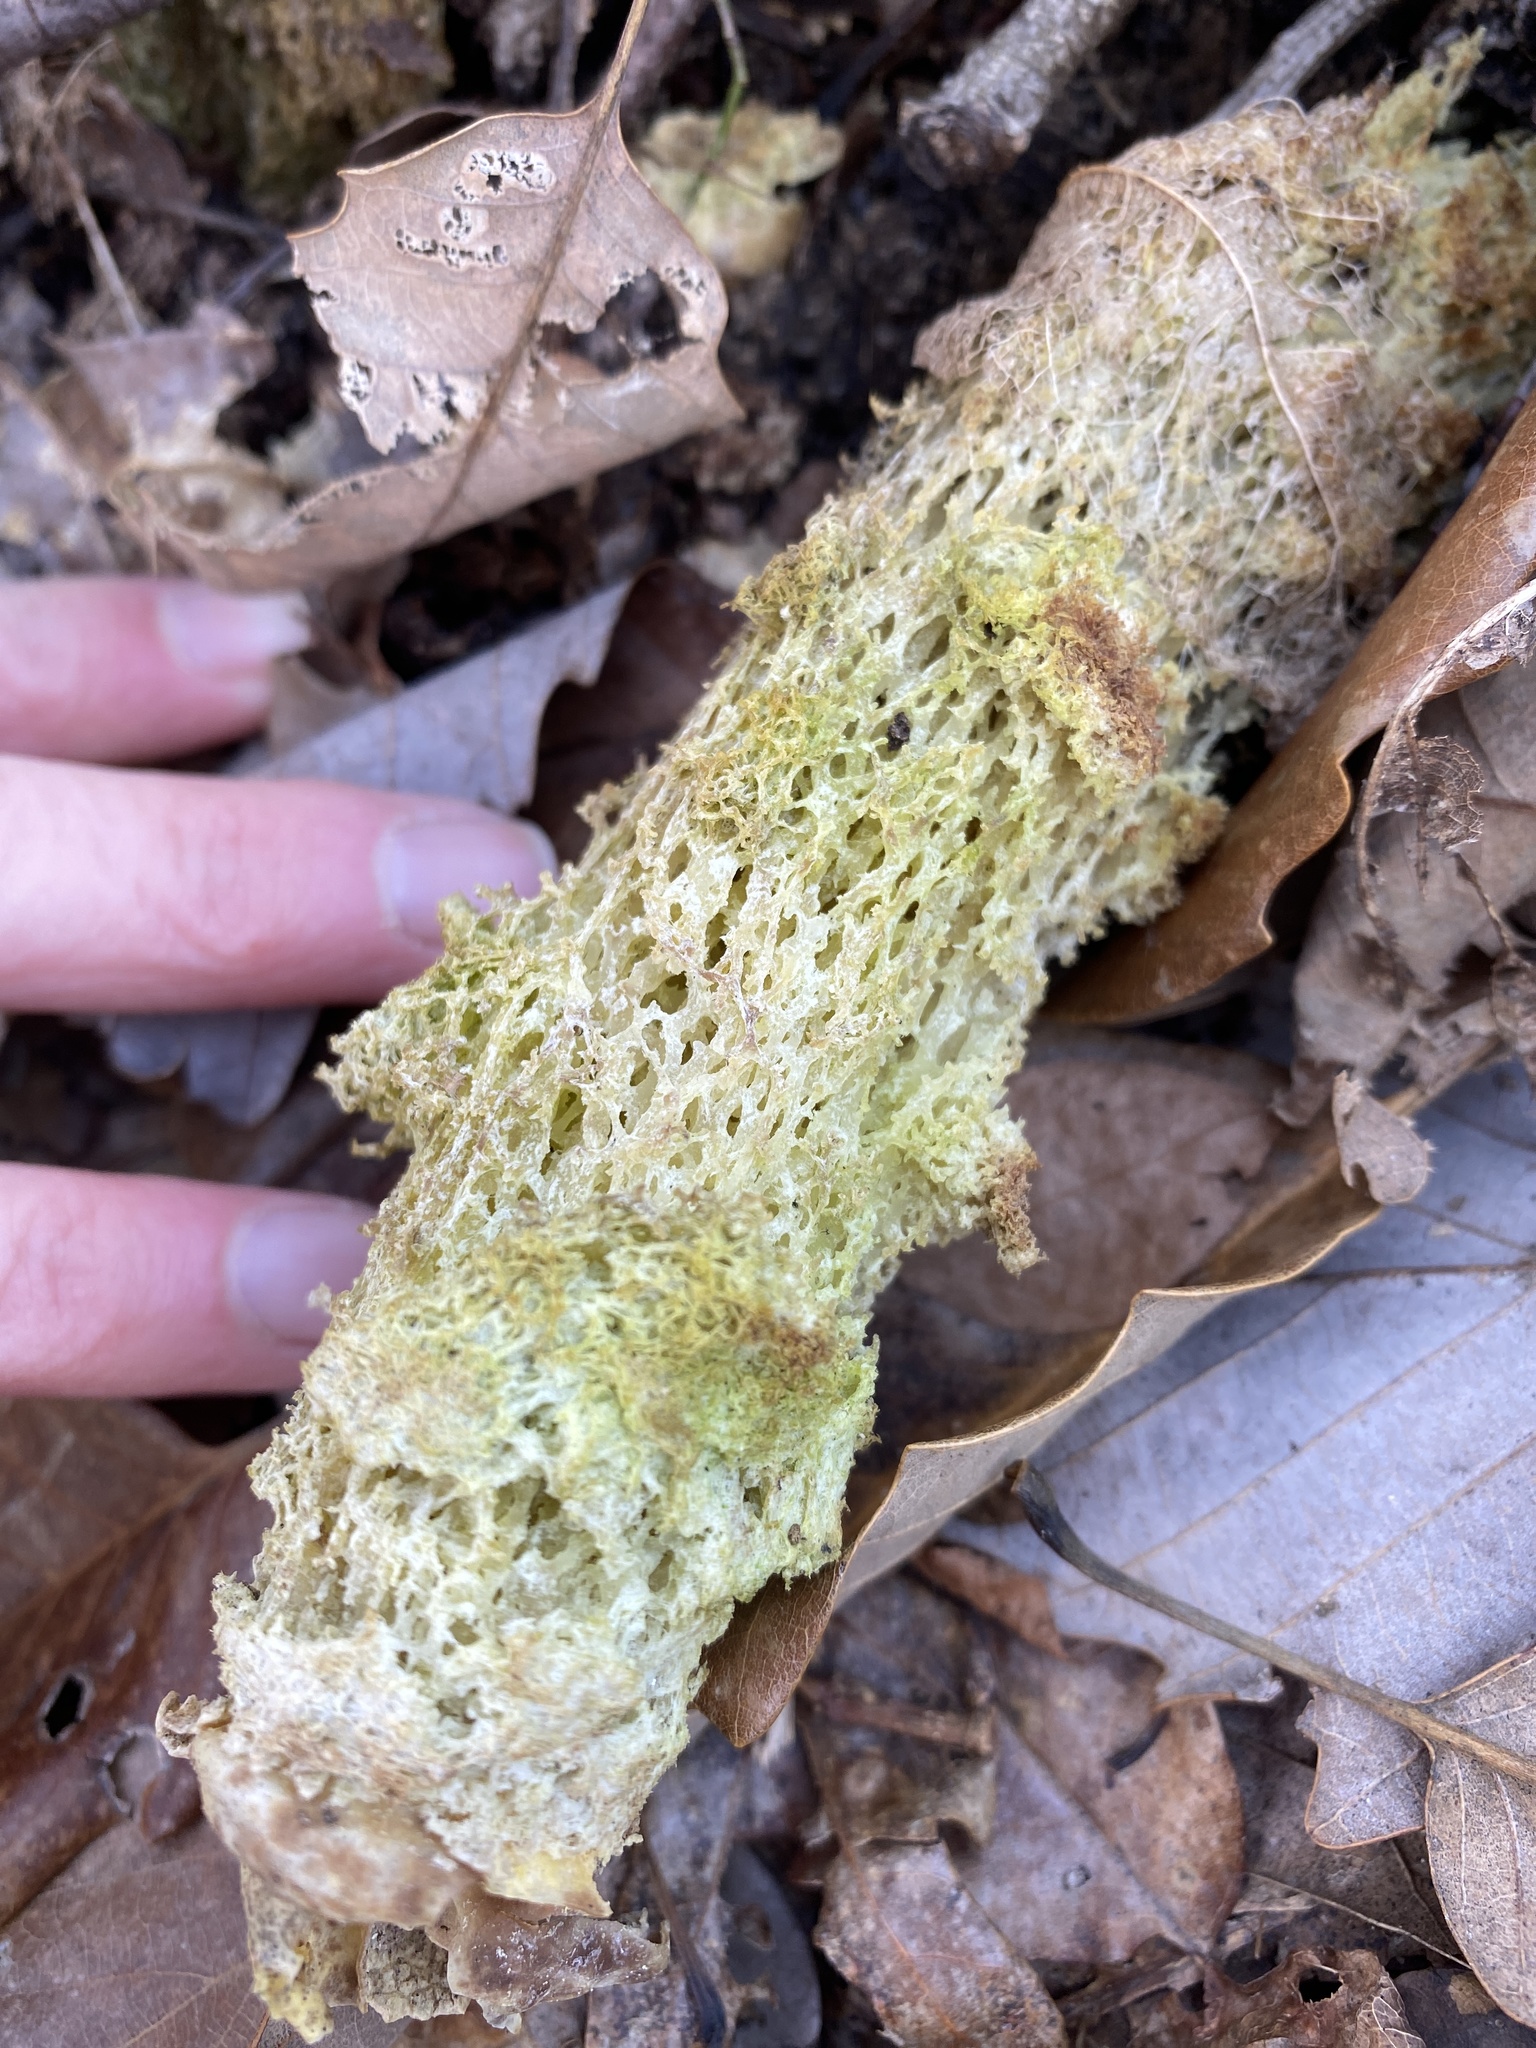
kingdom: Fungi
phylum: Basidiomycota
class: Agaricomycetes
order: Boletales
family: Calostomataceae
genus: Calostoma
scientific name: Calostoma lutescens
